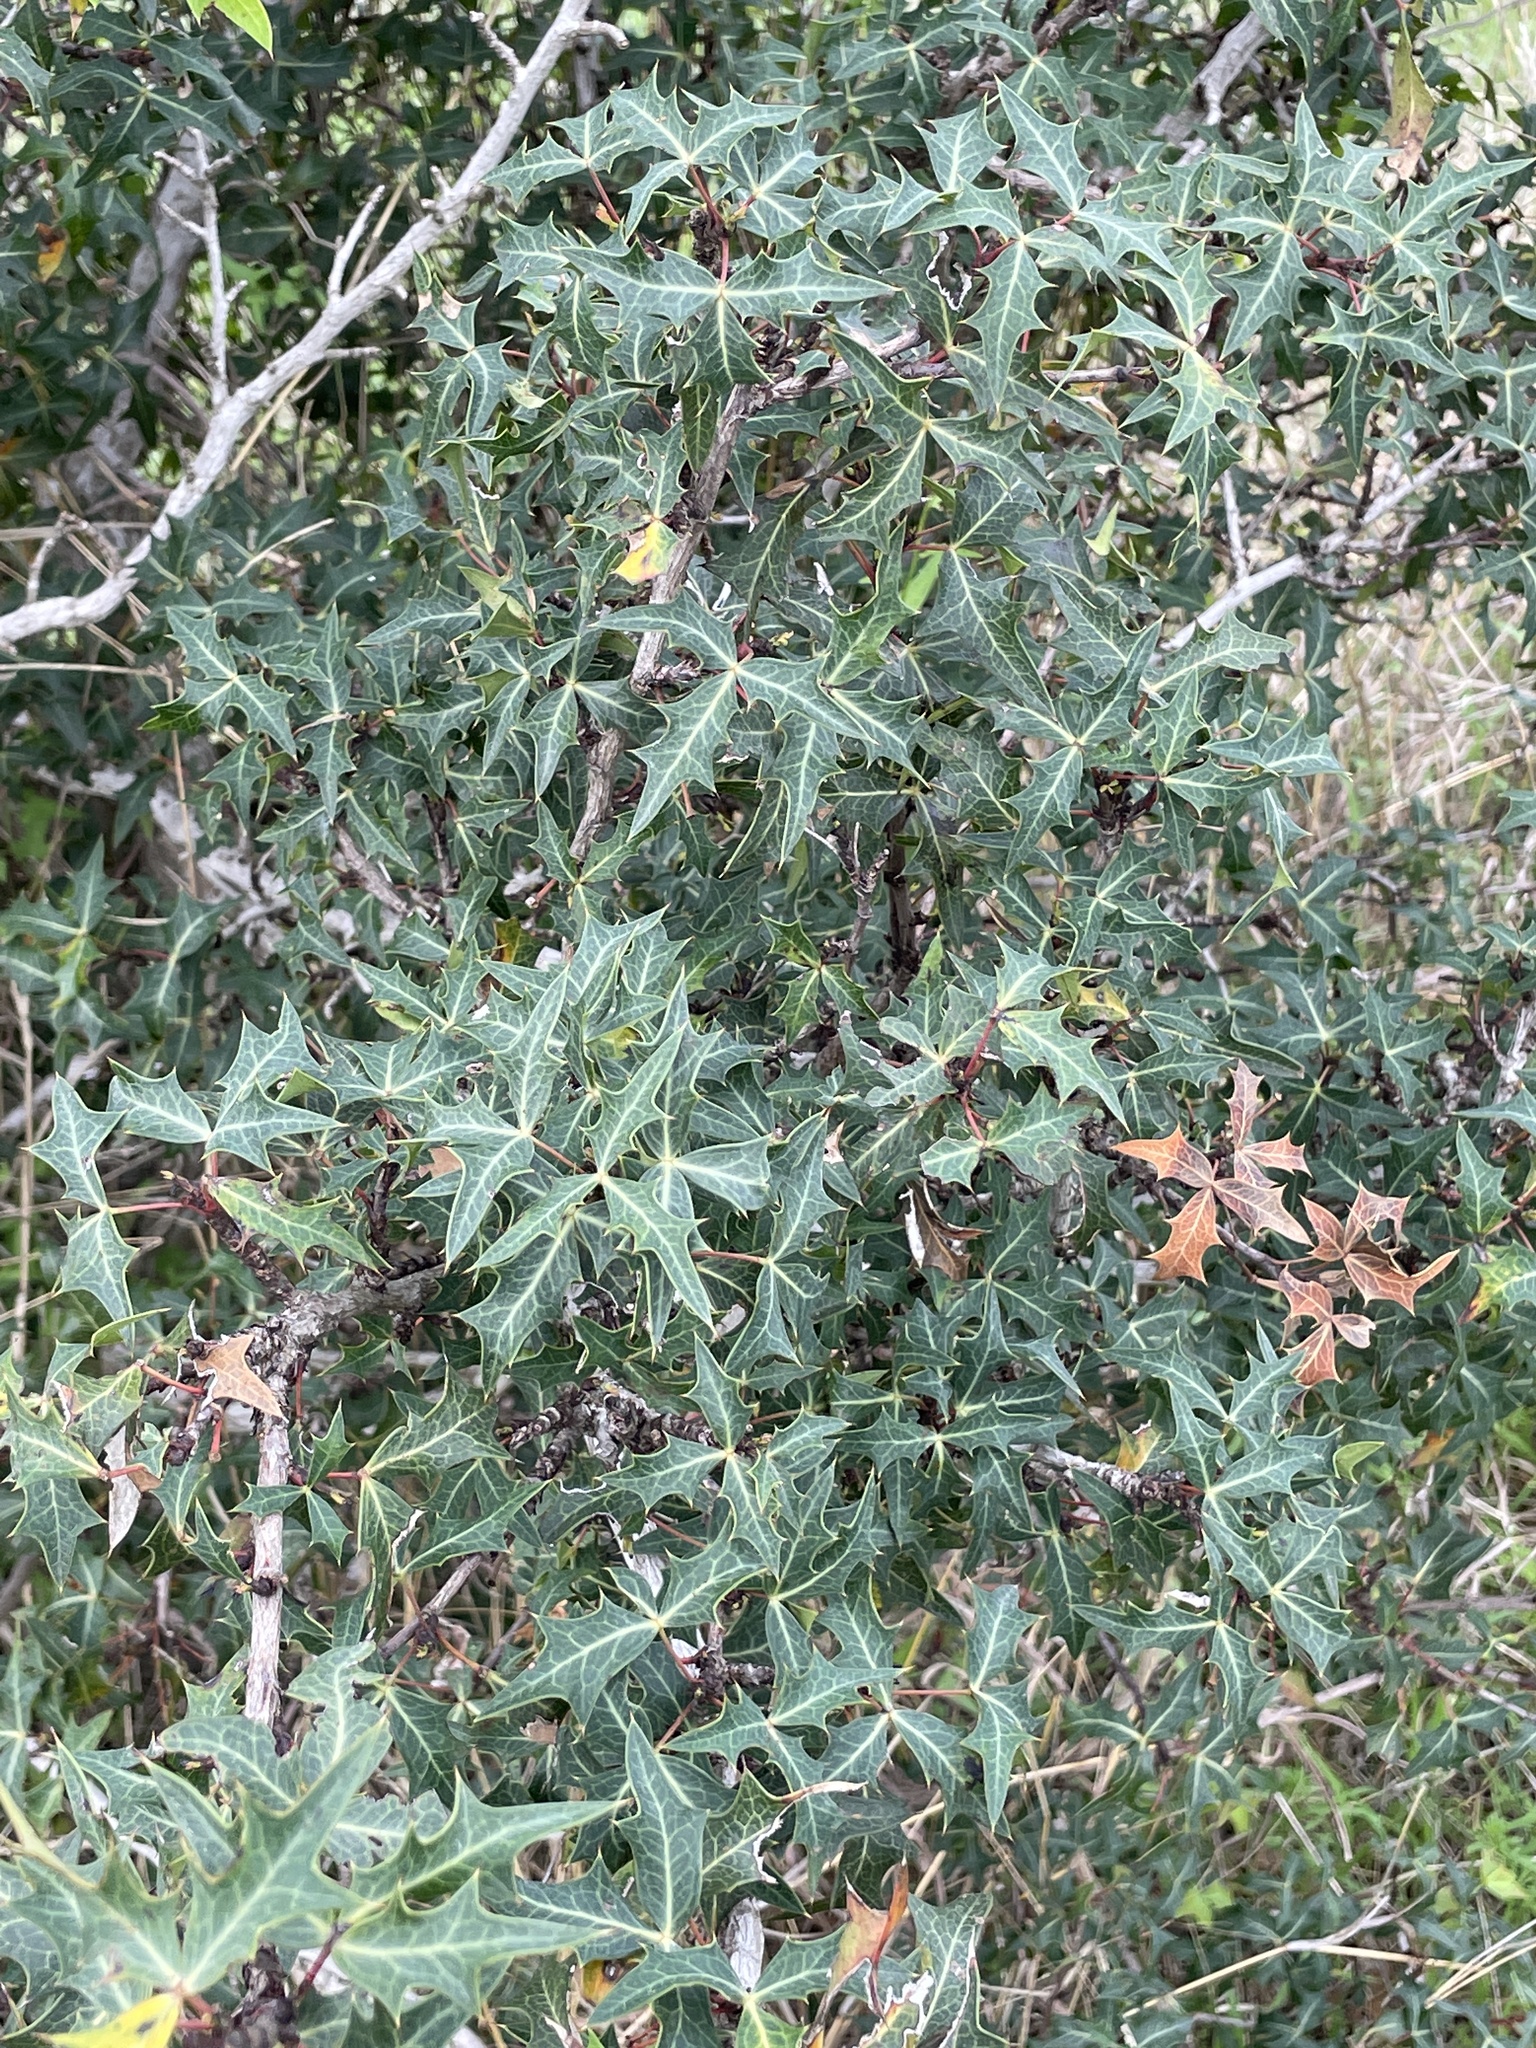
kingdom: Plantae
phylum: Tracheophyta
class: Magnoliopsida
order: Ranunculales
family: Berberidaceae
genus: Alloberberis
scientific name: Alloberberis trifoliolata
